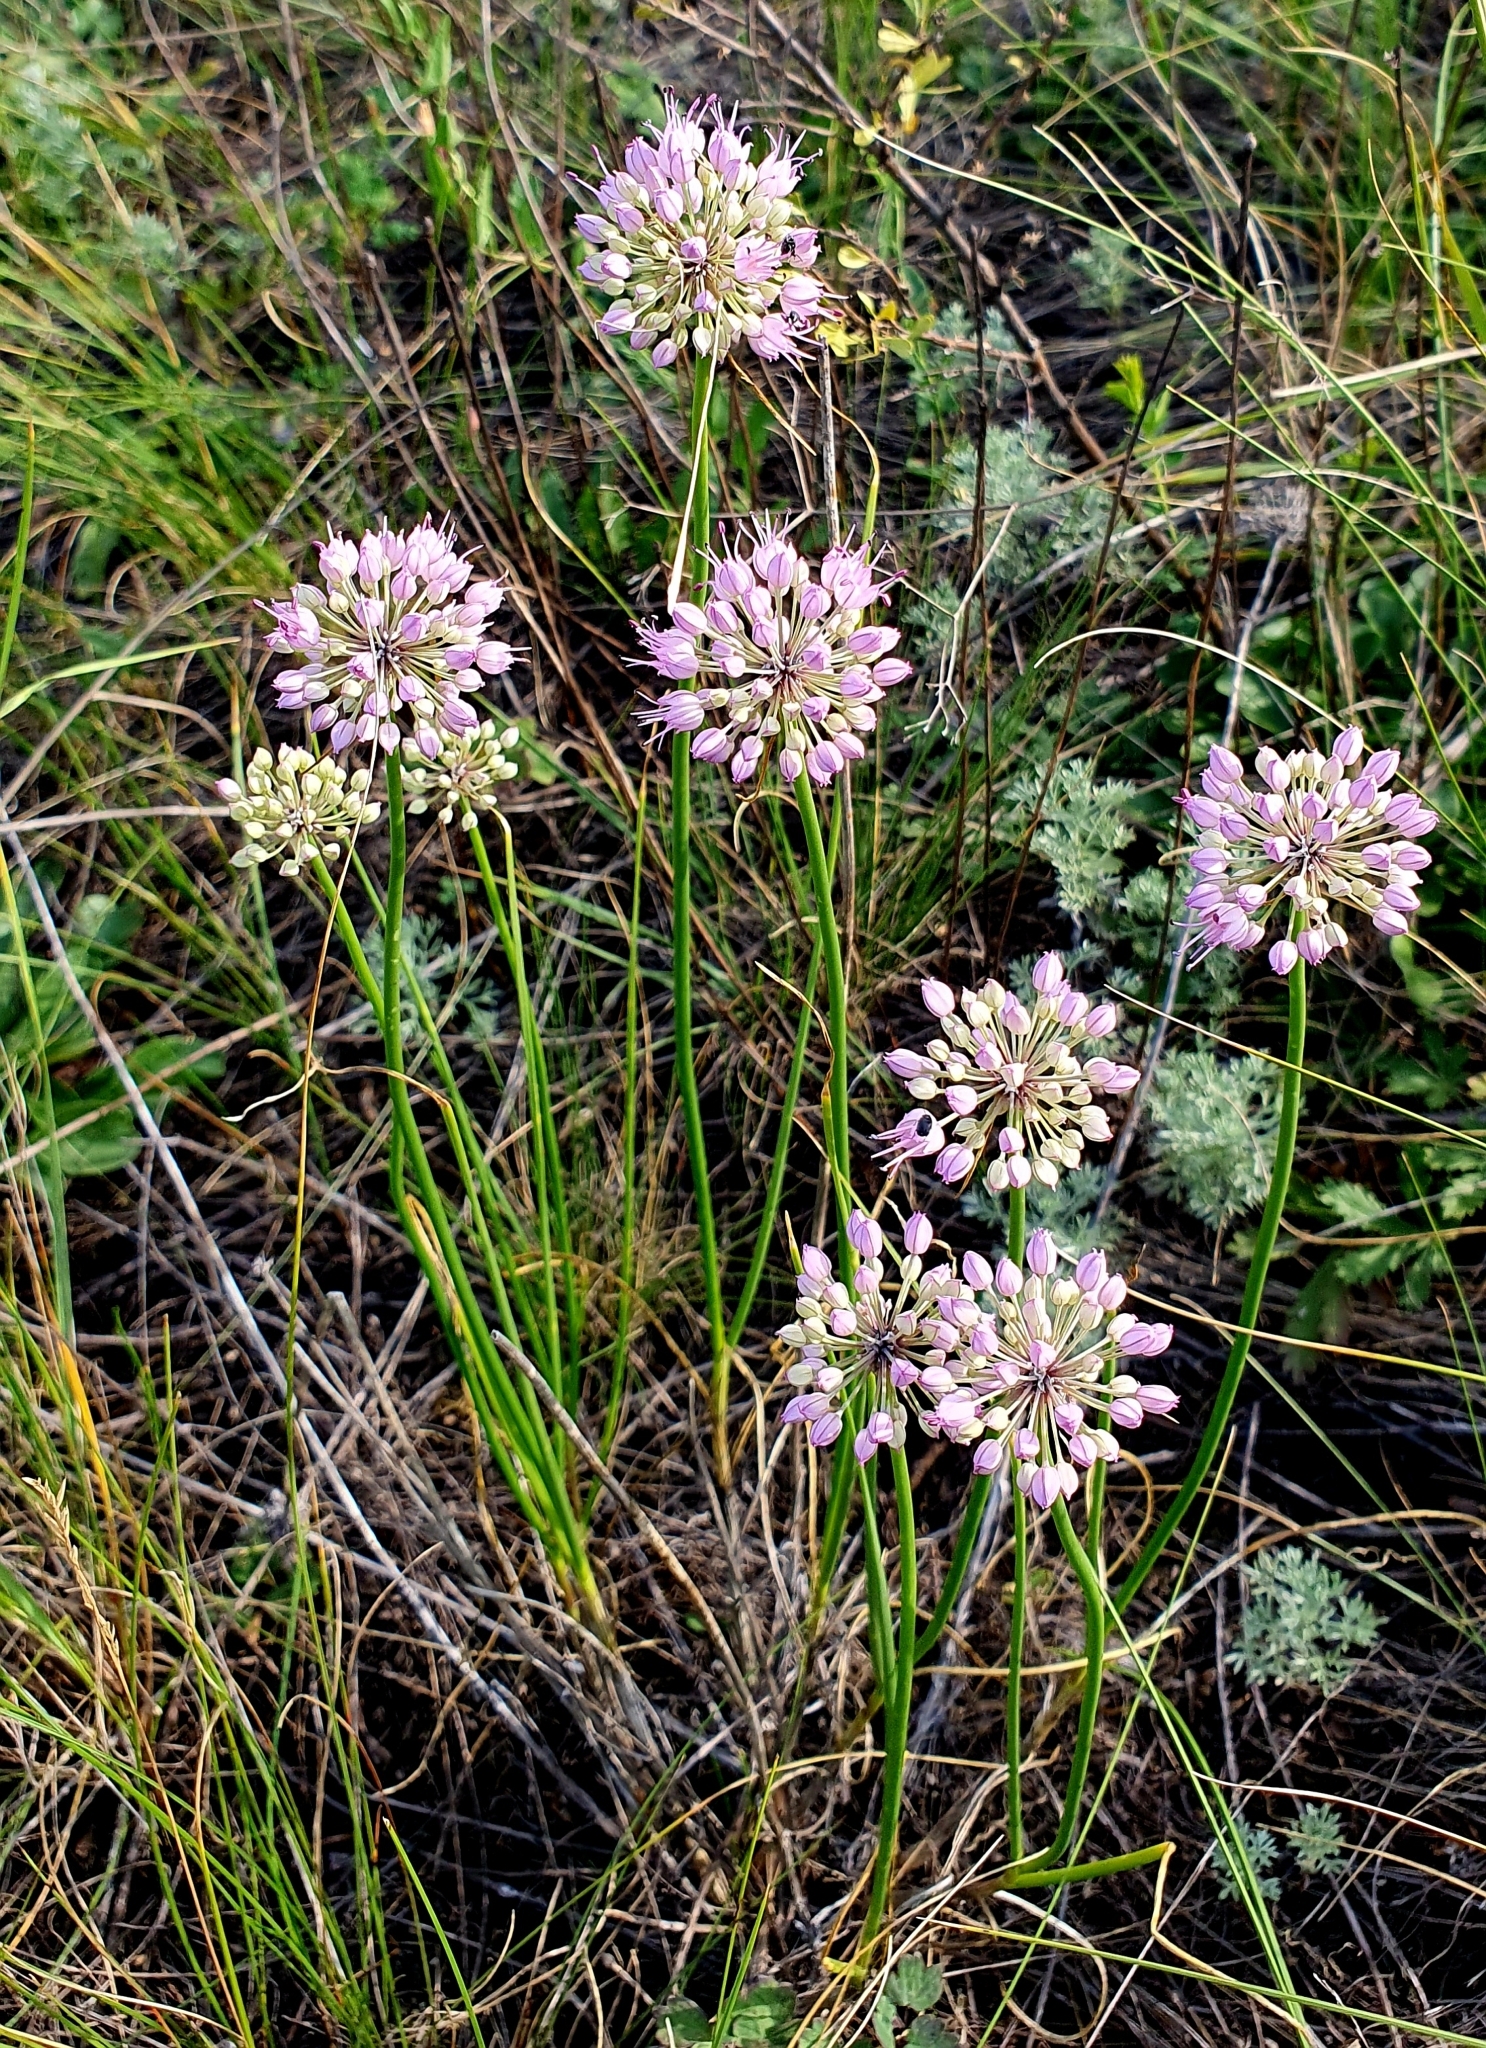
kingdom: Plantae
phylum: Tracheophyta
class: Liliopsida
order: Asparagales
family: Amaryllidaceae
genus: Allium
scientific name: Allium cretaceum
